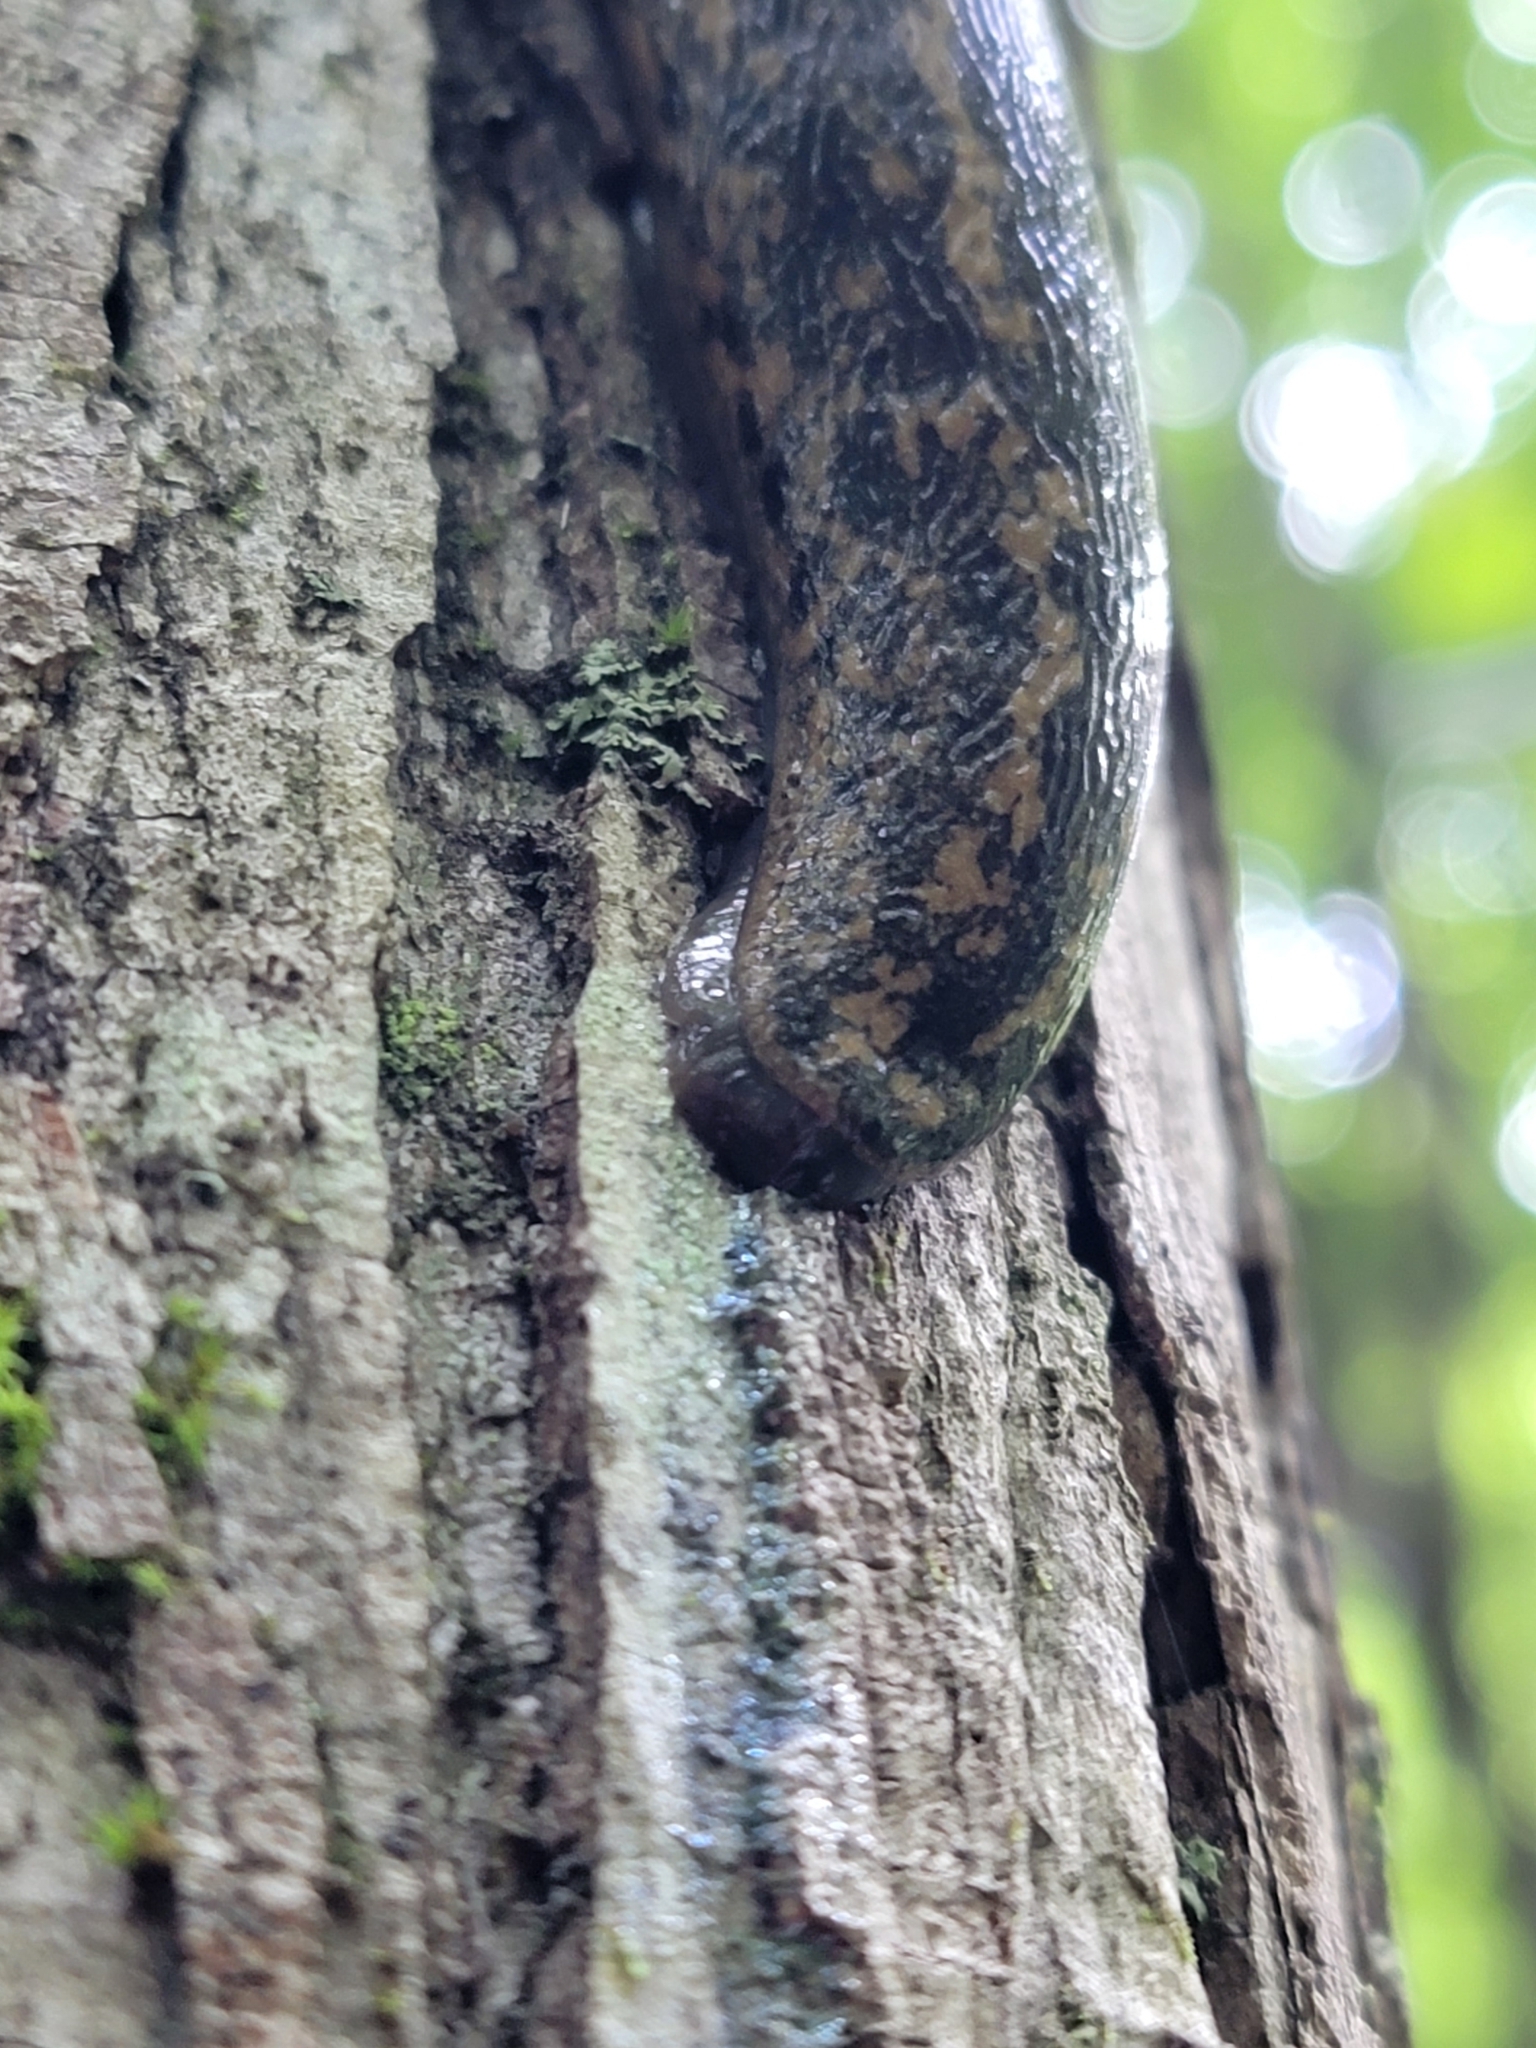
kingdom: Animalia
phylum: Mollusca
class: Gastropoda
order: Stylommatophora
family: Philomycidae
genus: Philomycus
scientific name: Philomycus flexuolaris
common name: Winding mantleslug
